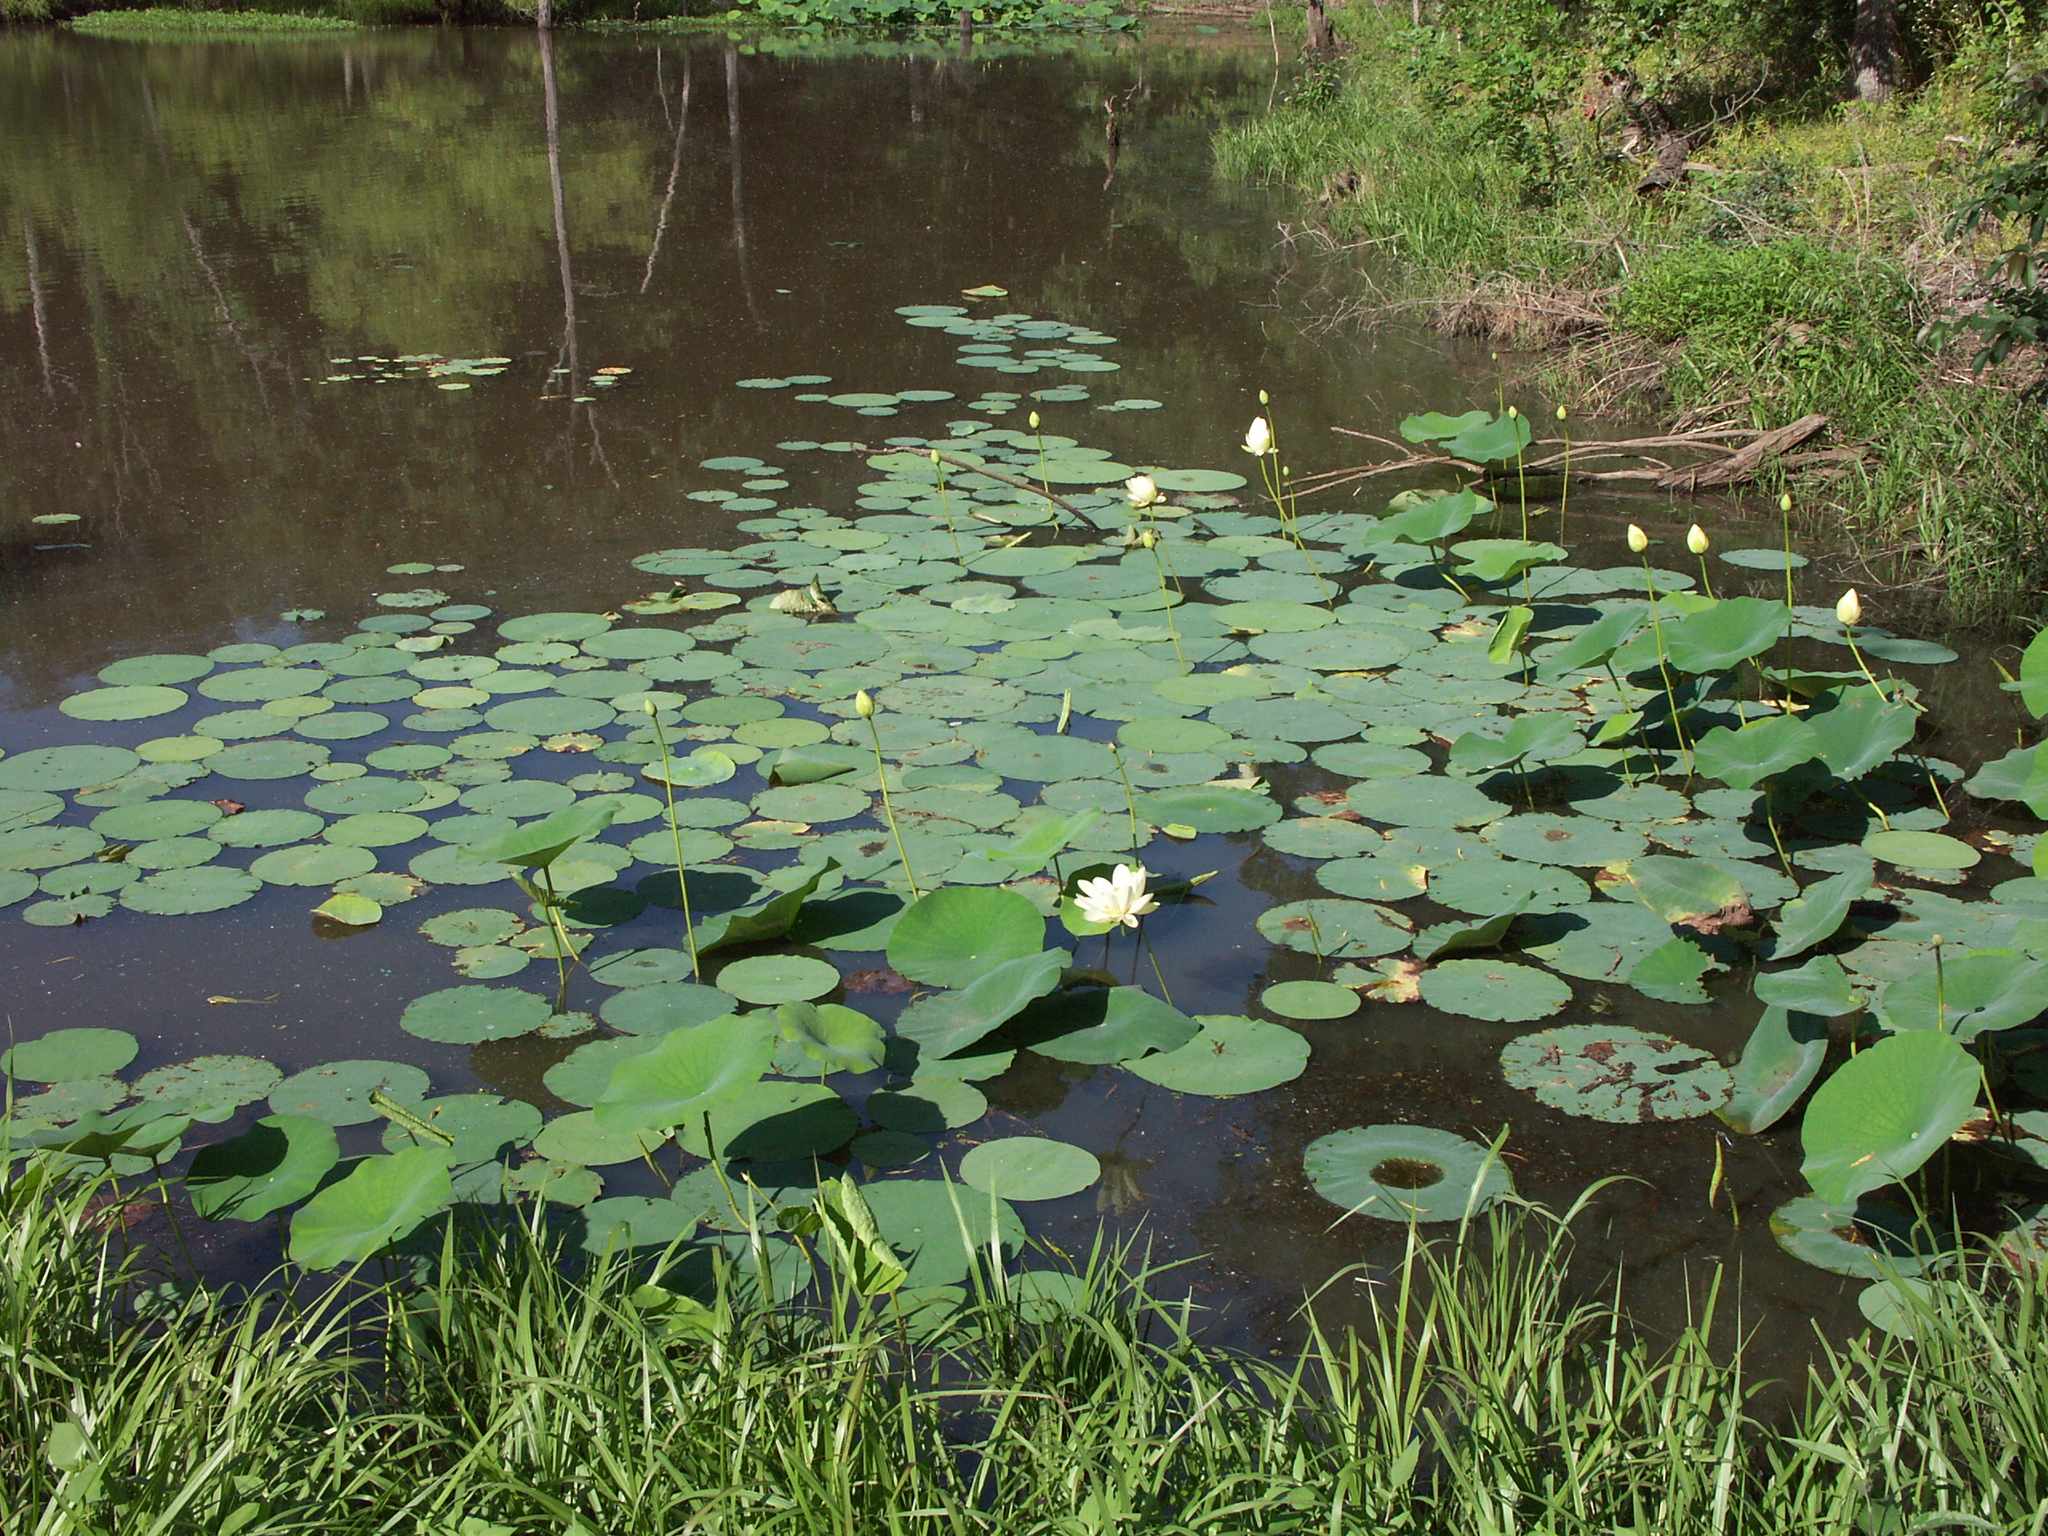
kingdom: Plantae
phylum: Tracheophyta
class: Magnoliopsida
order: Proteales
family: Nelumbonaceae
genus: Nelumbo
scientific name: Nelumbo lutea
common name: American lotus
